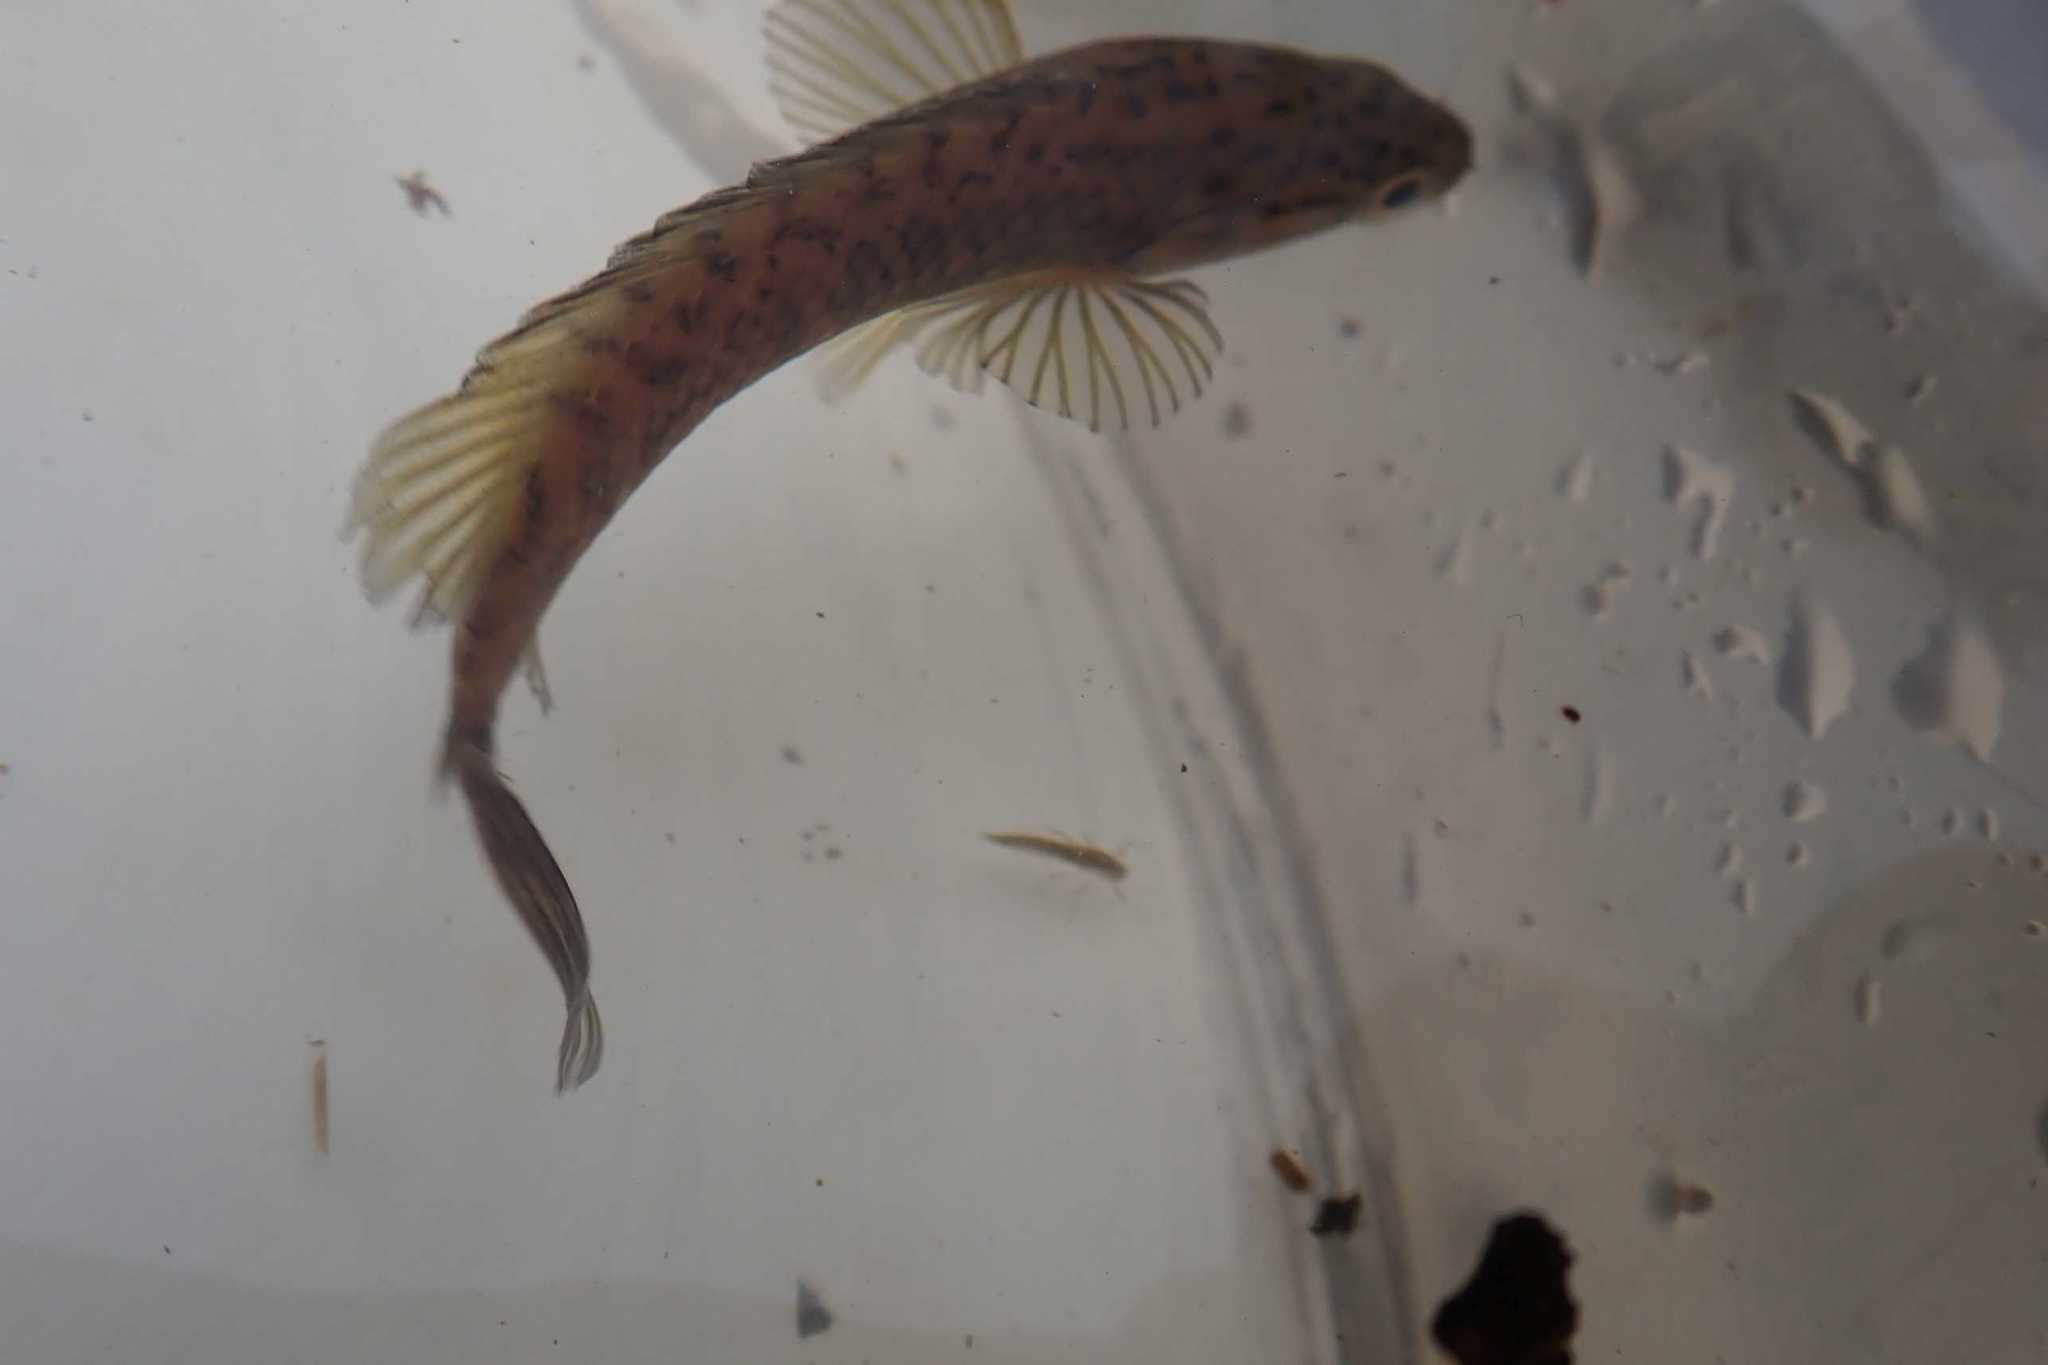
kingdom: Animalia
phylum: Chordata
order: Perciformes
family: Anabantidae
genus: Sandelia
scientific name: Sandelia capensis
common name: Cape kurper
